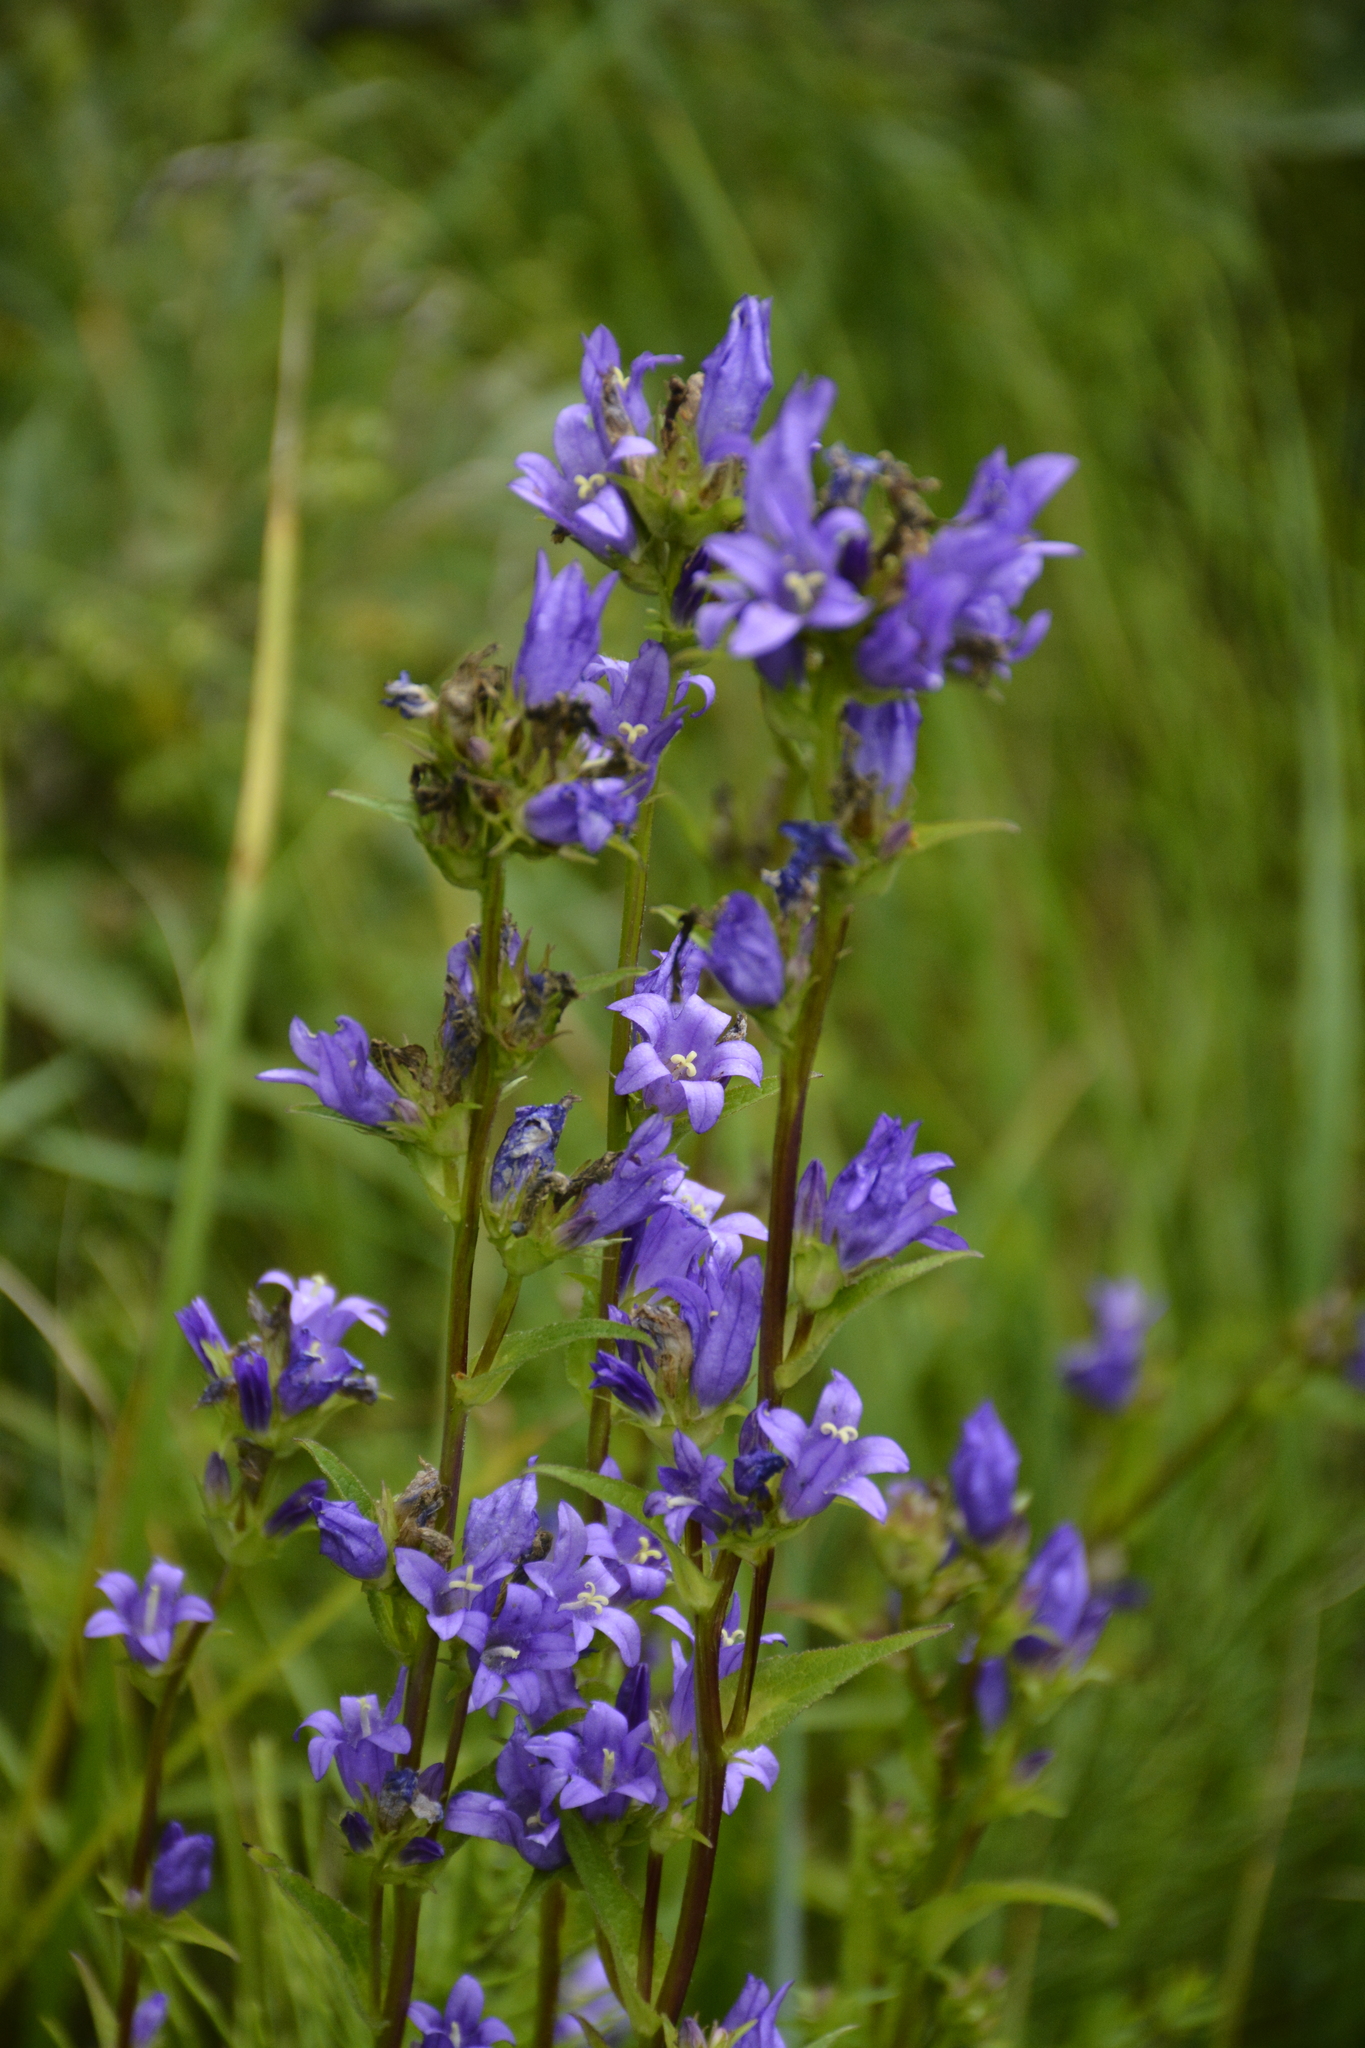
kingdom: Plantae
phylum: Tracheophyta
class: Magnoliopsida
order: Asterales
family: Campanulaceae
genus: Campanula
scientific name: Campanula glomerata
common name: Clustered bellflower
